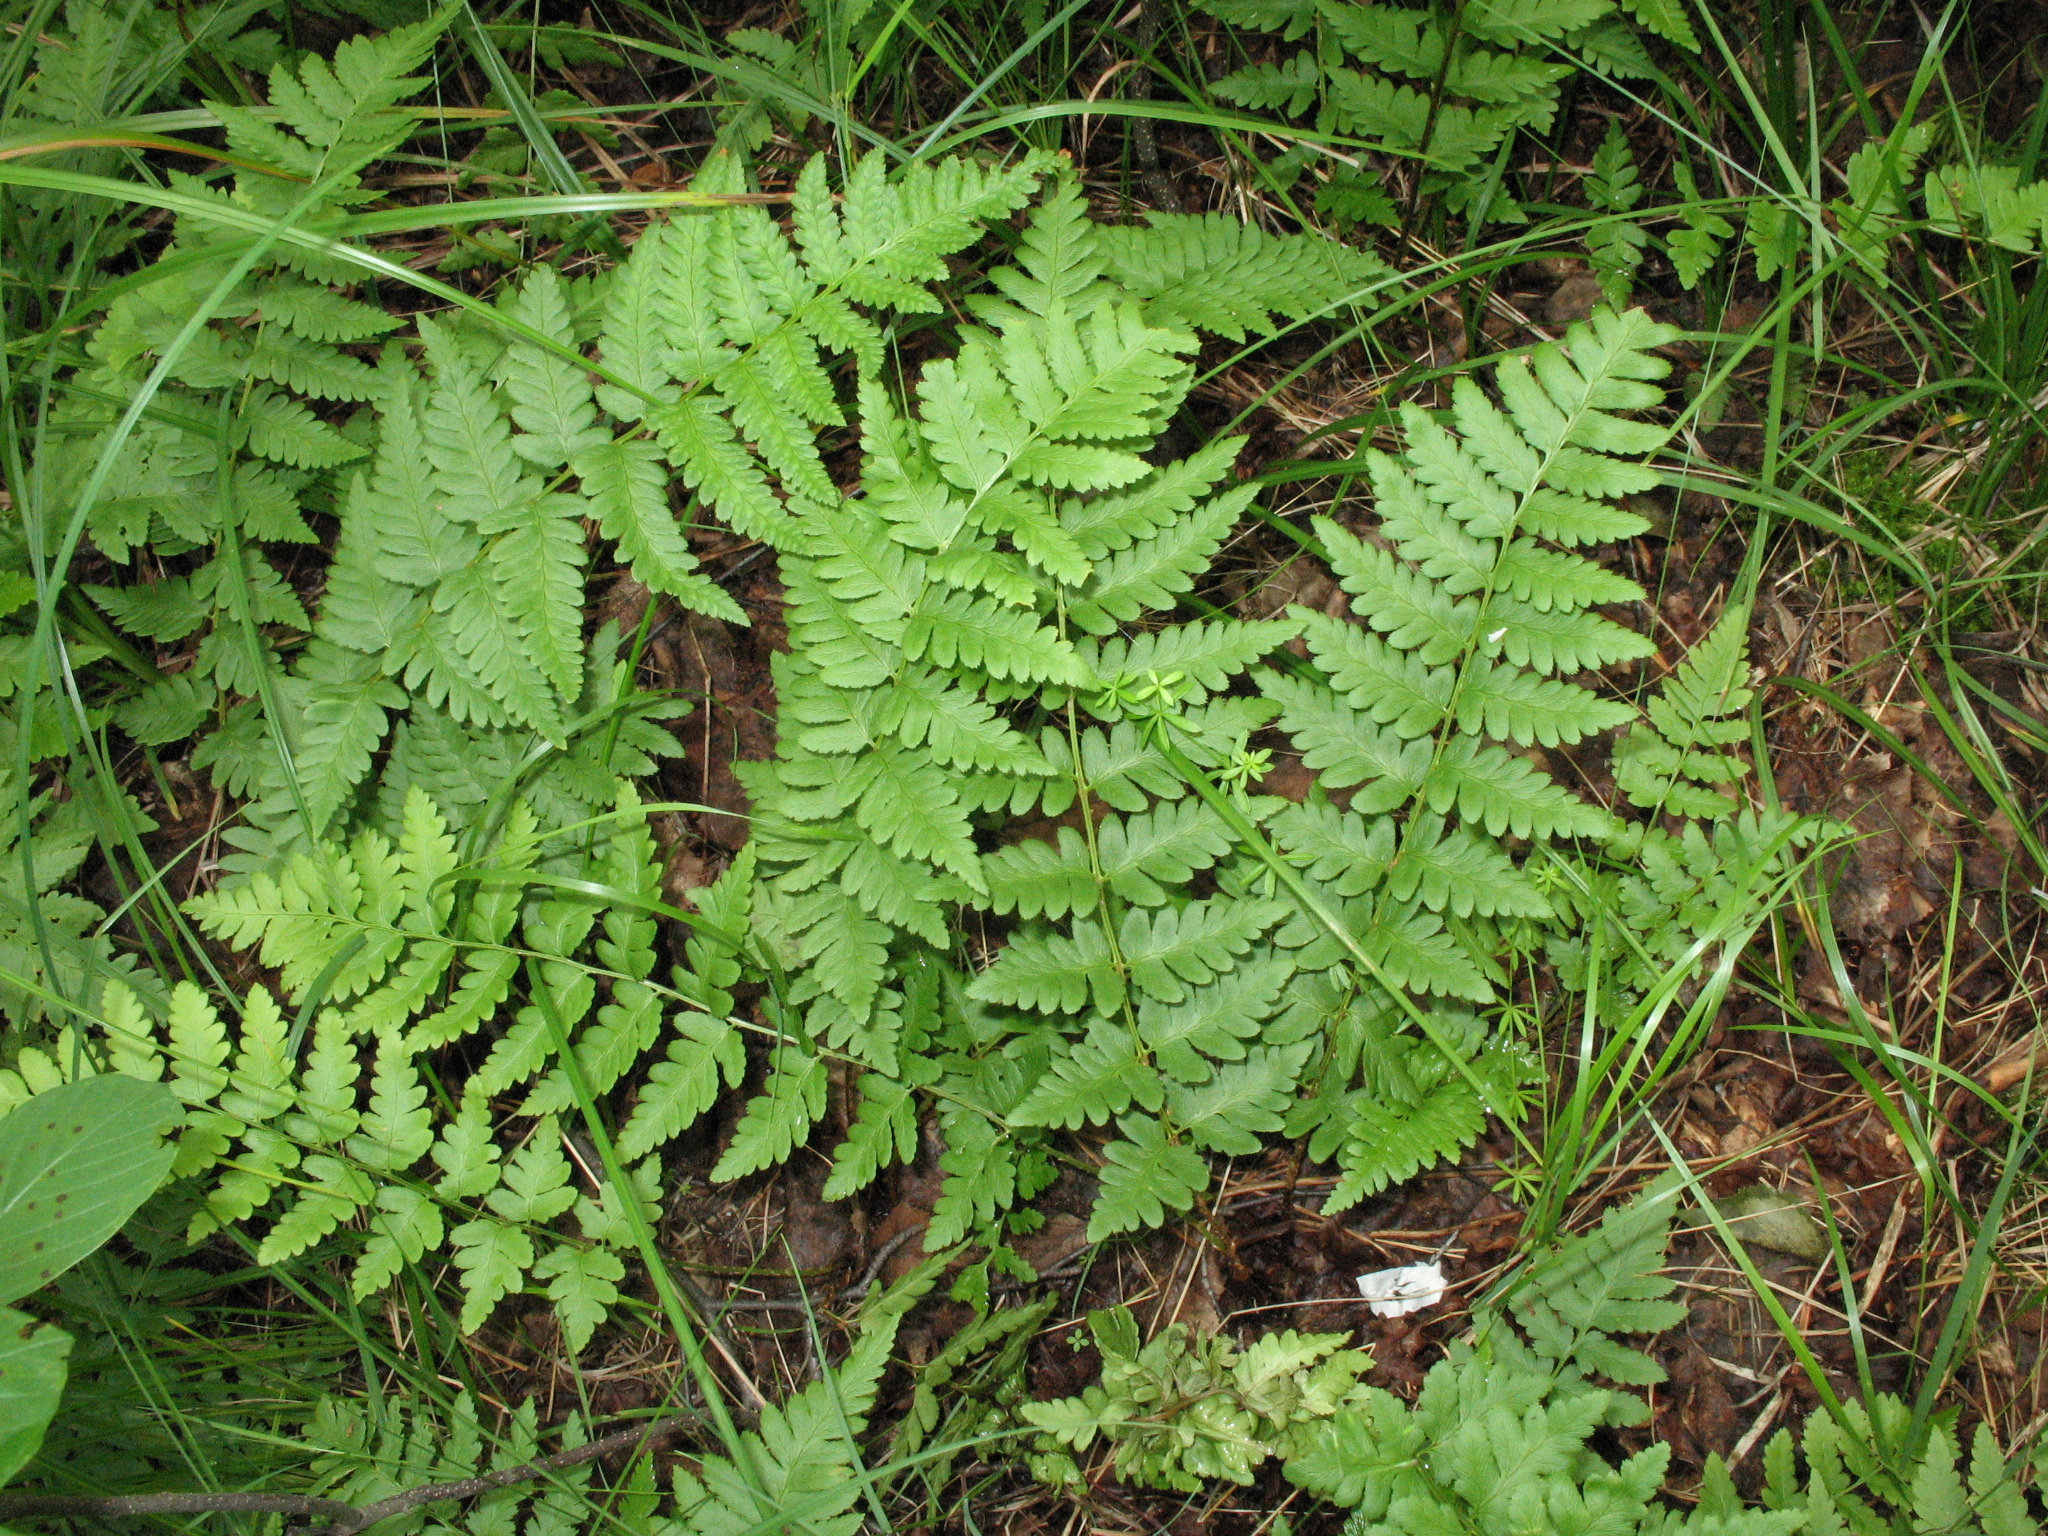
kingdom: Plantae
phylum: Tracheophyta
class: Polypodiopsida
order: Polypodiales
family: Dryopteridaceae
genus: Dryopteris
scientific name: Dryopteris cristata
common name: Crested wood fern
